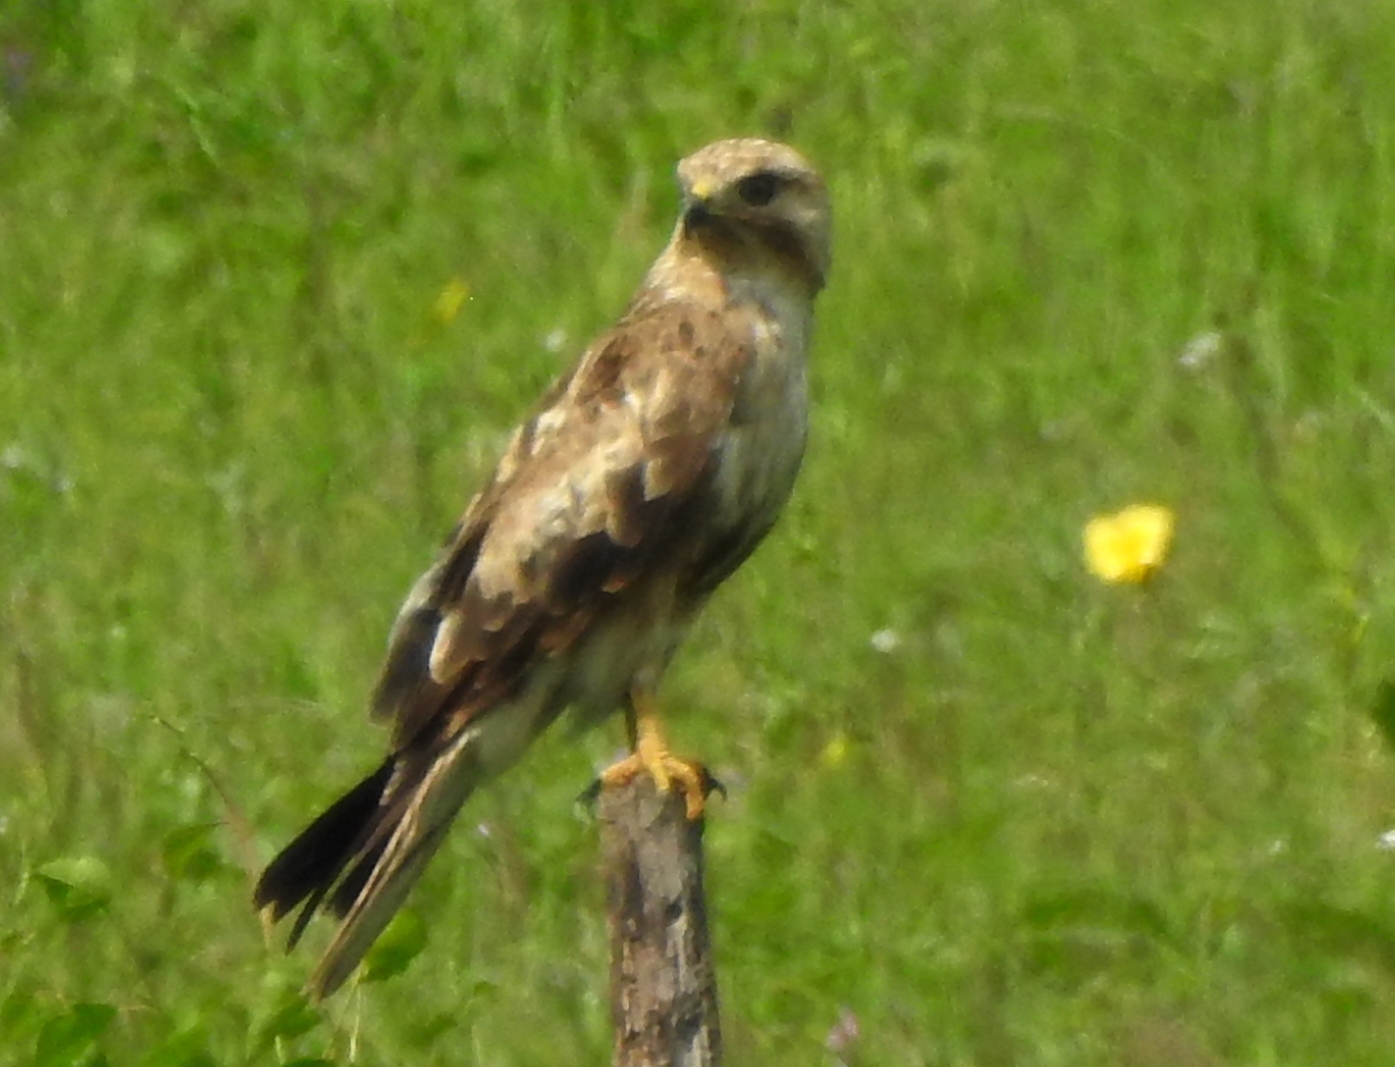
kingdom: Animalia
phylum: Chordata
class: Aves
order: Accipitriformes
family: Accipitridae
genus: Buteo
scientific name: Buteo japonicus
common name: Eastern buzzard
